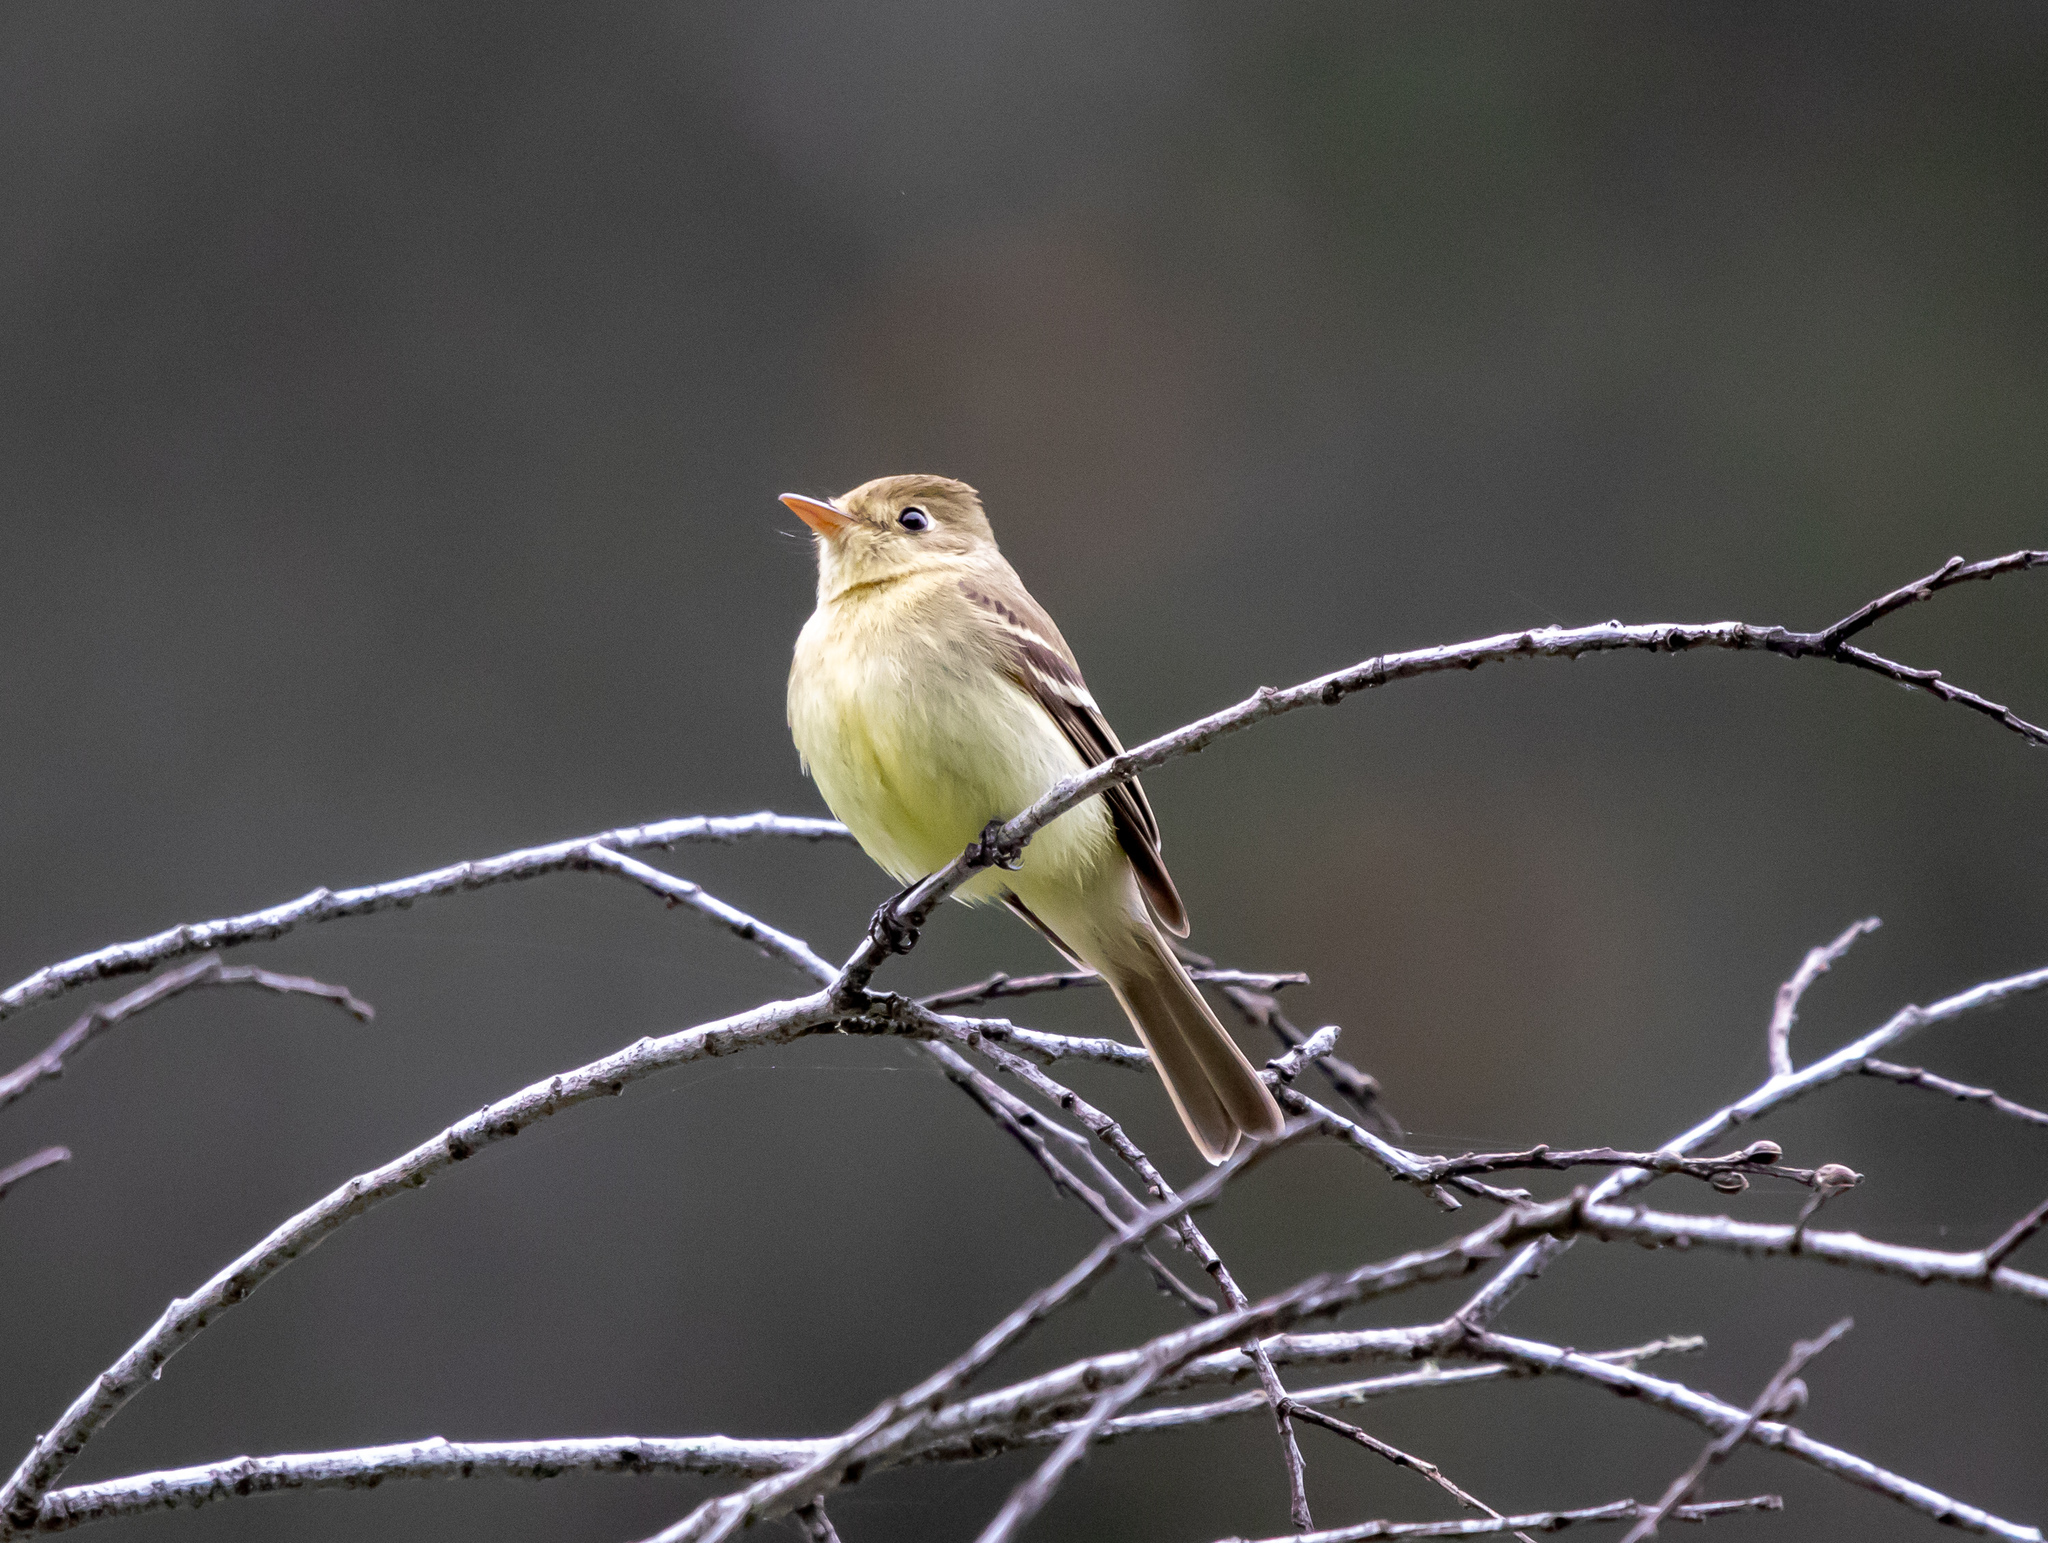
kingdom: Animalia
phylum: Chordata
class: Aves
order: Passeriformes
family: Tyrannidae
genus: Empidonax
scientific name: Empidonax difficilis
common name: Pacific-slope flycatcher
